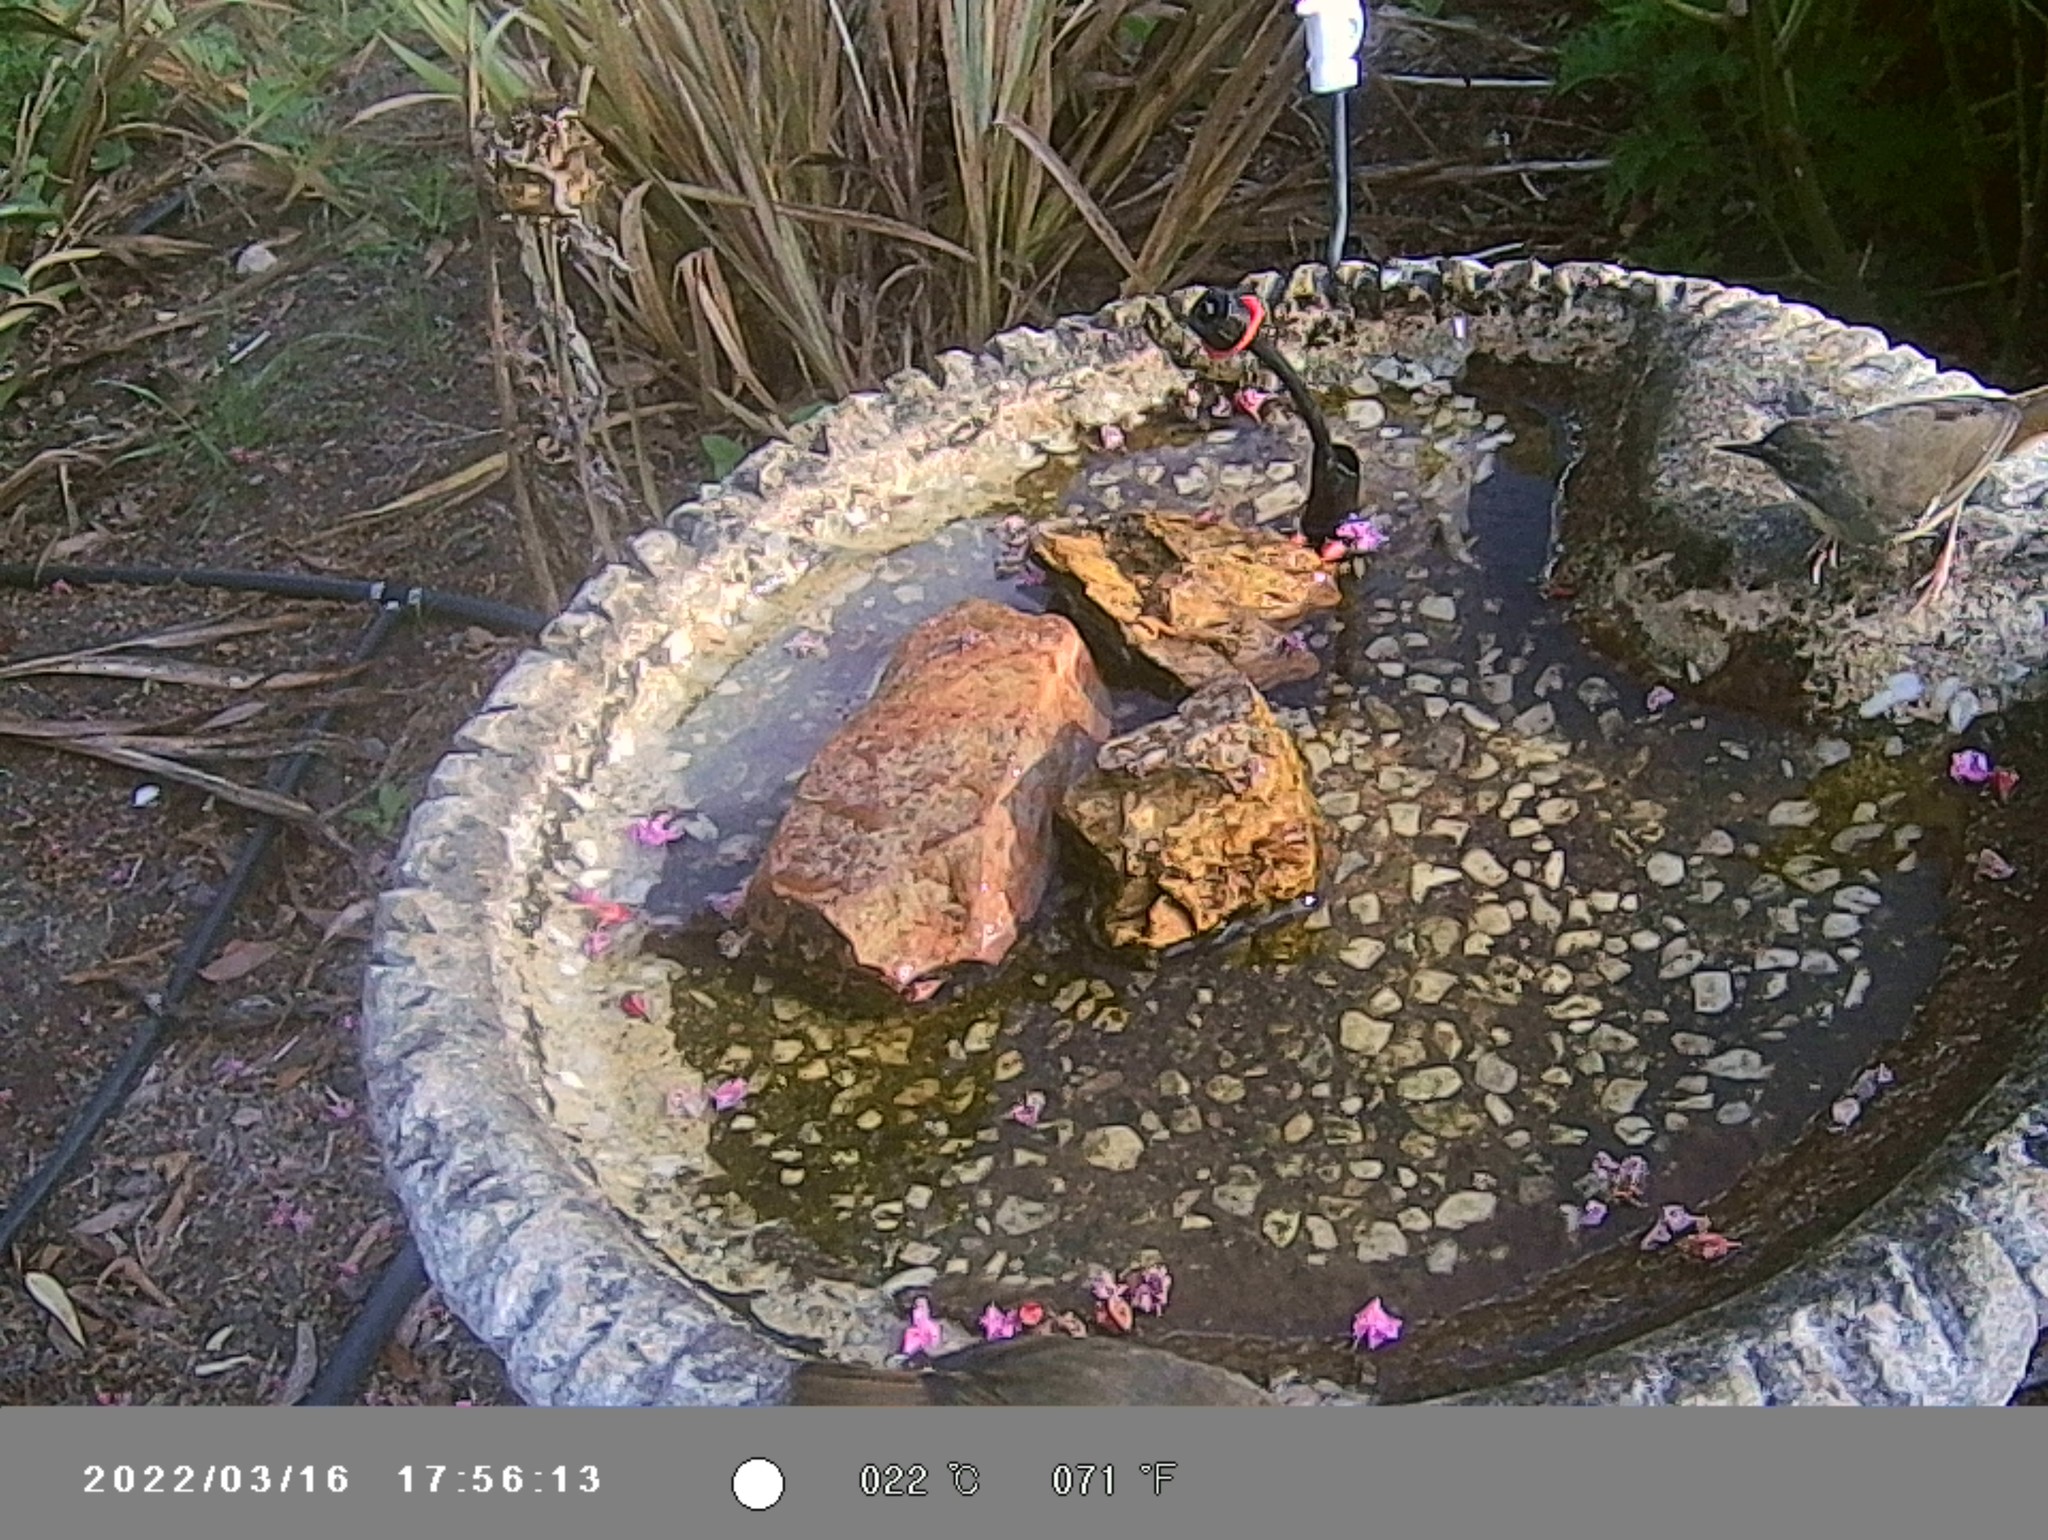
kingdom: Animalia
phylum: Chordata
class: Aves
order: Passeriformes
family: Acanthizidae
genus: Sericornis
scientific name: Sericornis frontalis
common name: White-browed scrubwren
